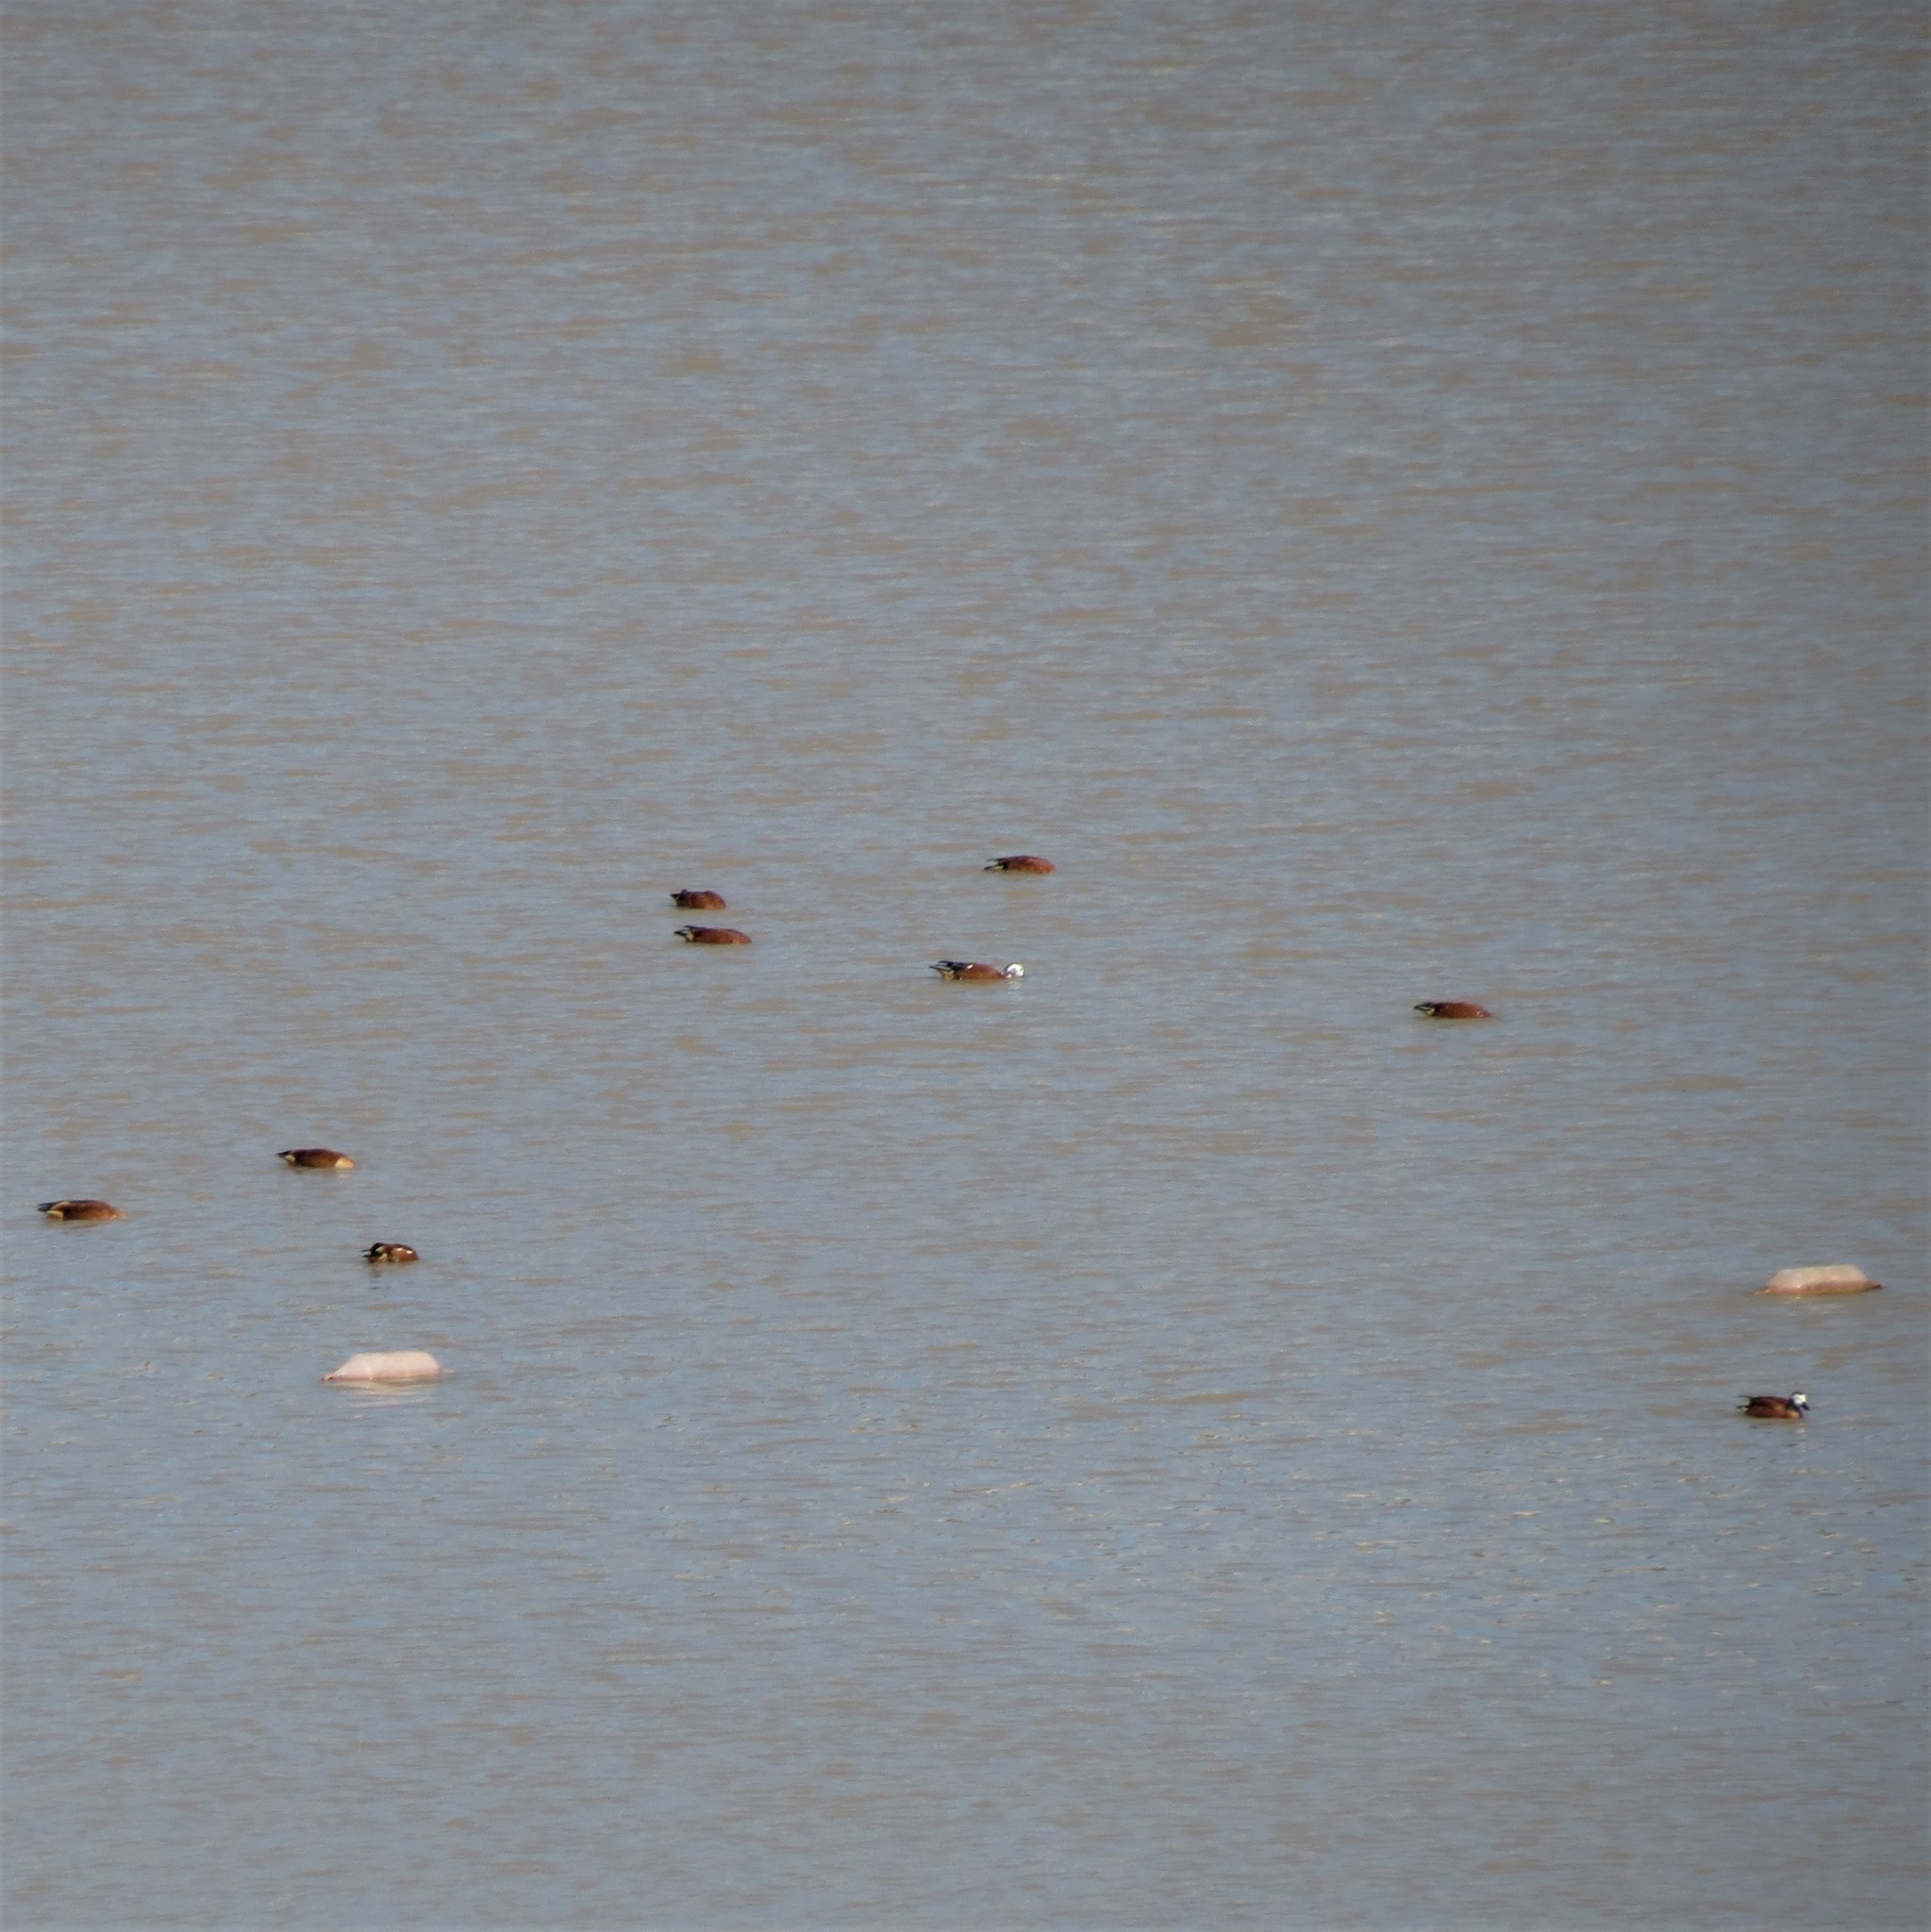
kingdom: Animalia
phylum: Chordata
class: Aves
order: Anseriformes
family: Anatidae
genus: Tadorna
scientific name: Tadorna cana
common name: South african shelduck
